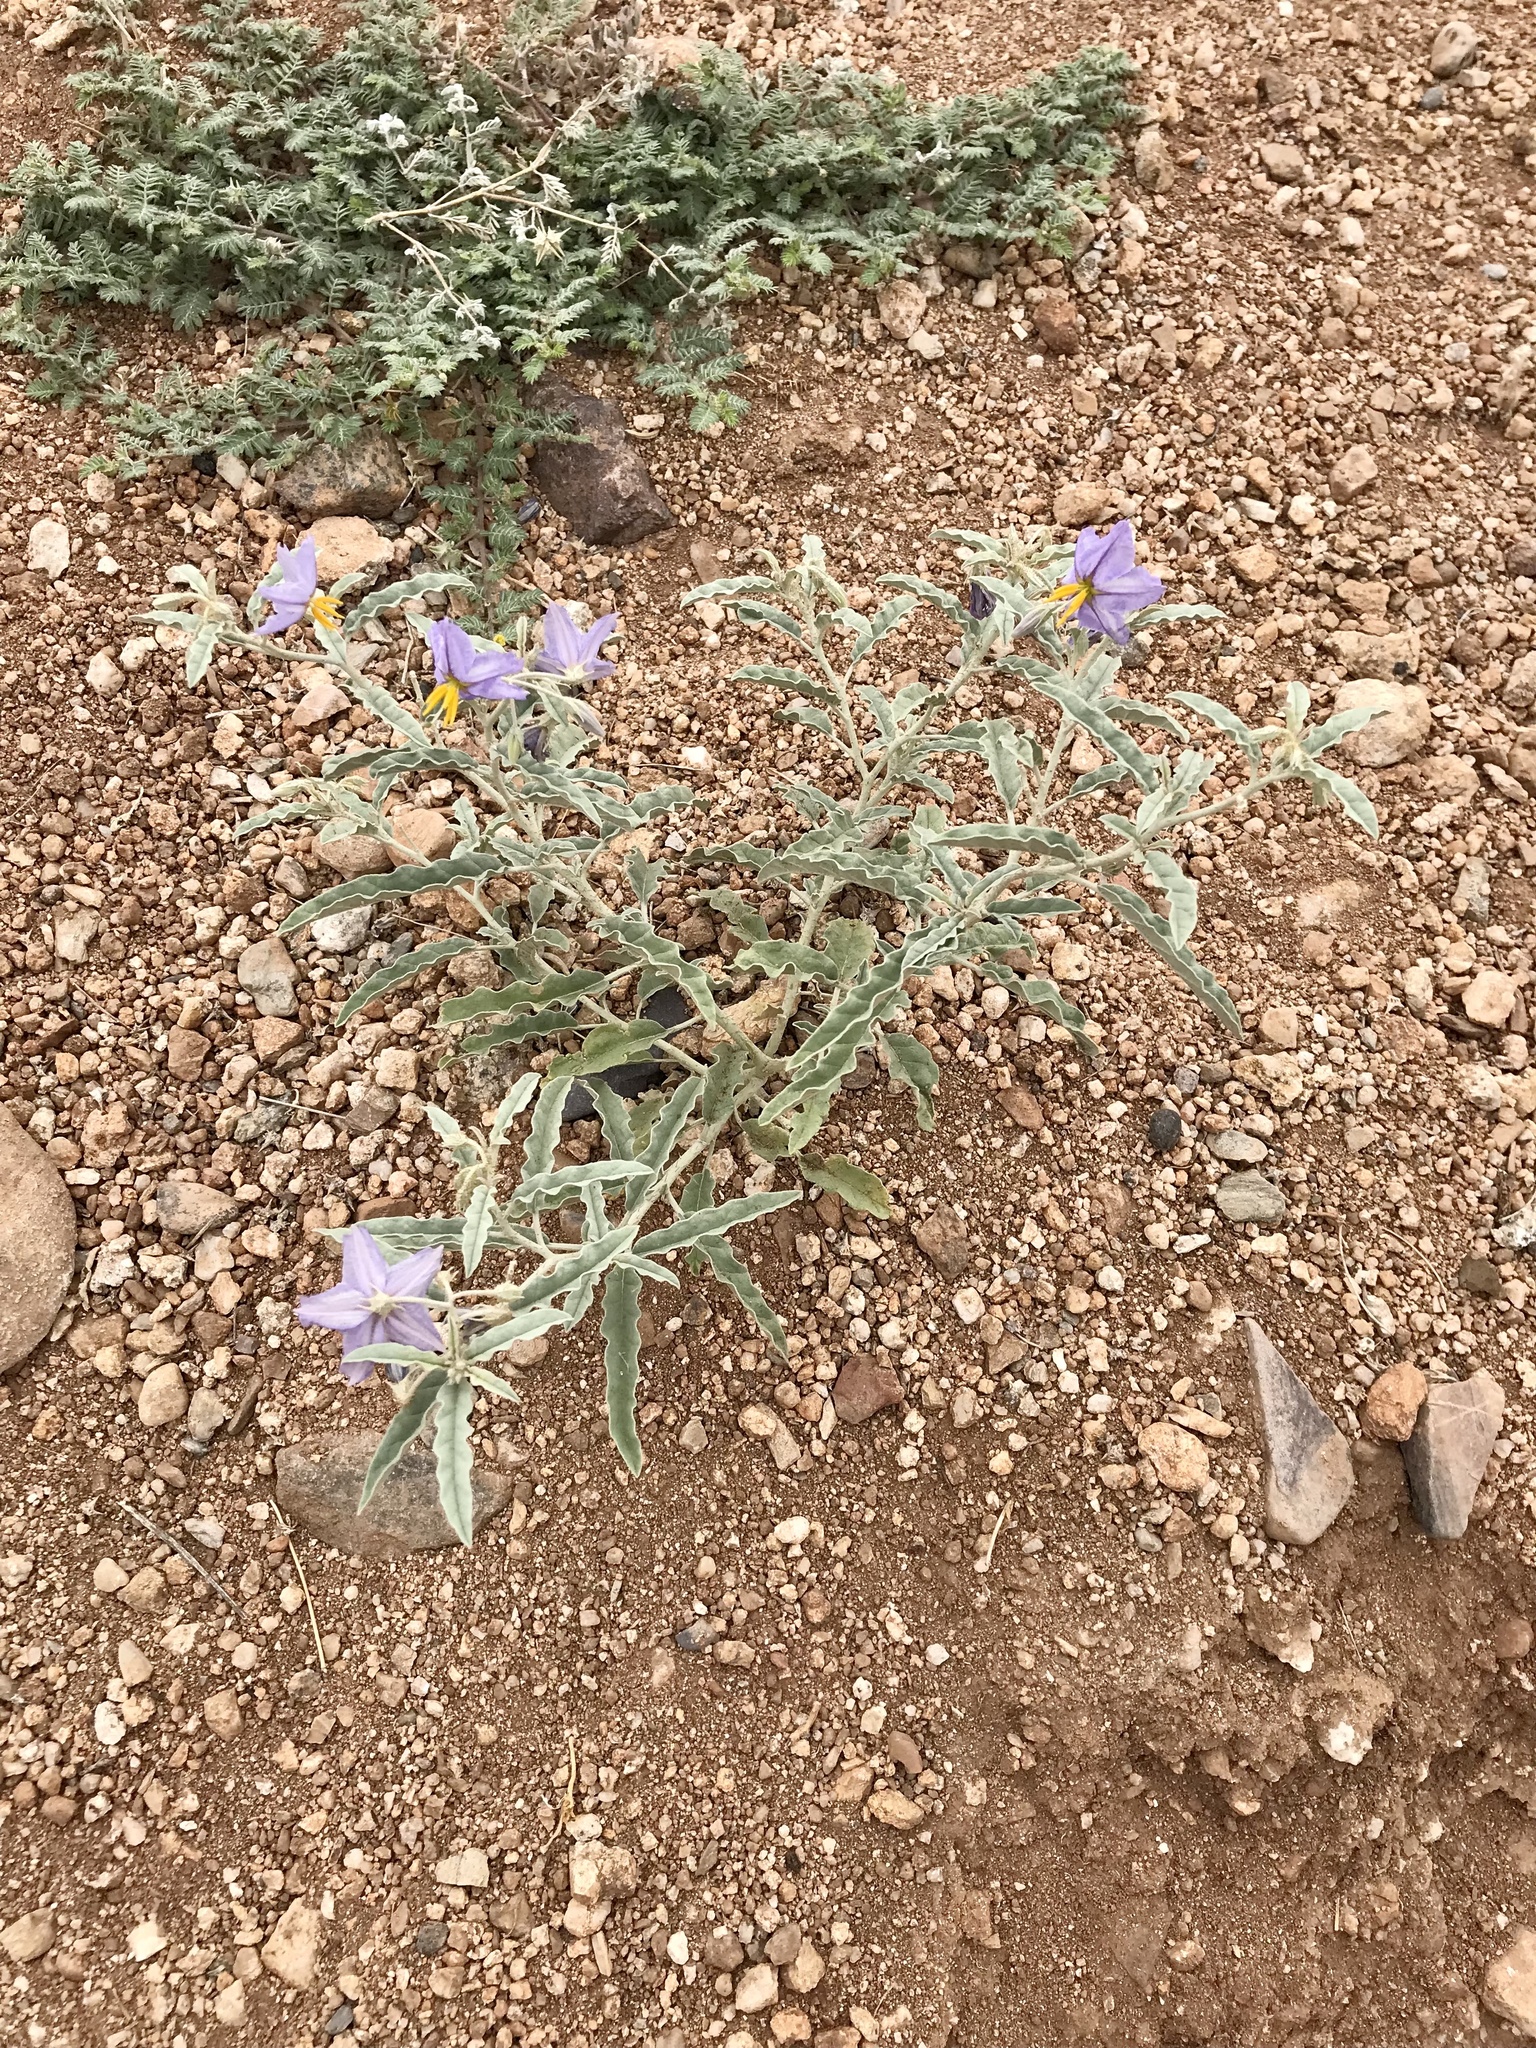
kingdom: Plantae
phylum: Tracheophyta
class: Magnoliopsida
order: Solanales
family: Solanaceae
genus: Solanum
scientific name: Solanum elaeagnifolium
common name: Silverleaf nightshade
